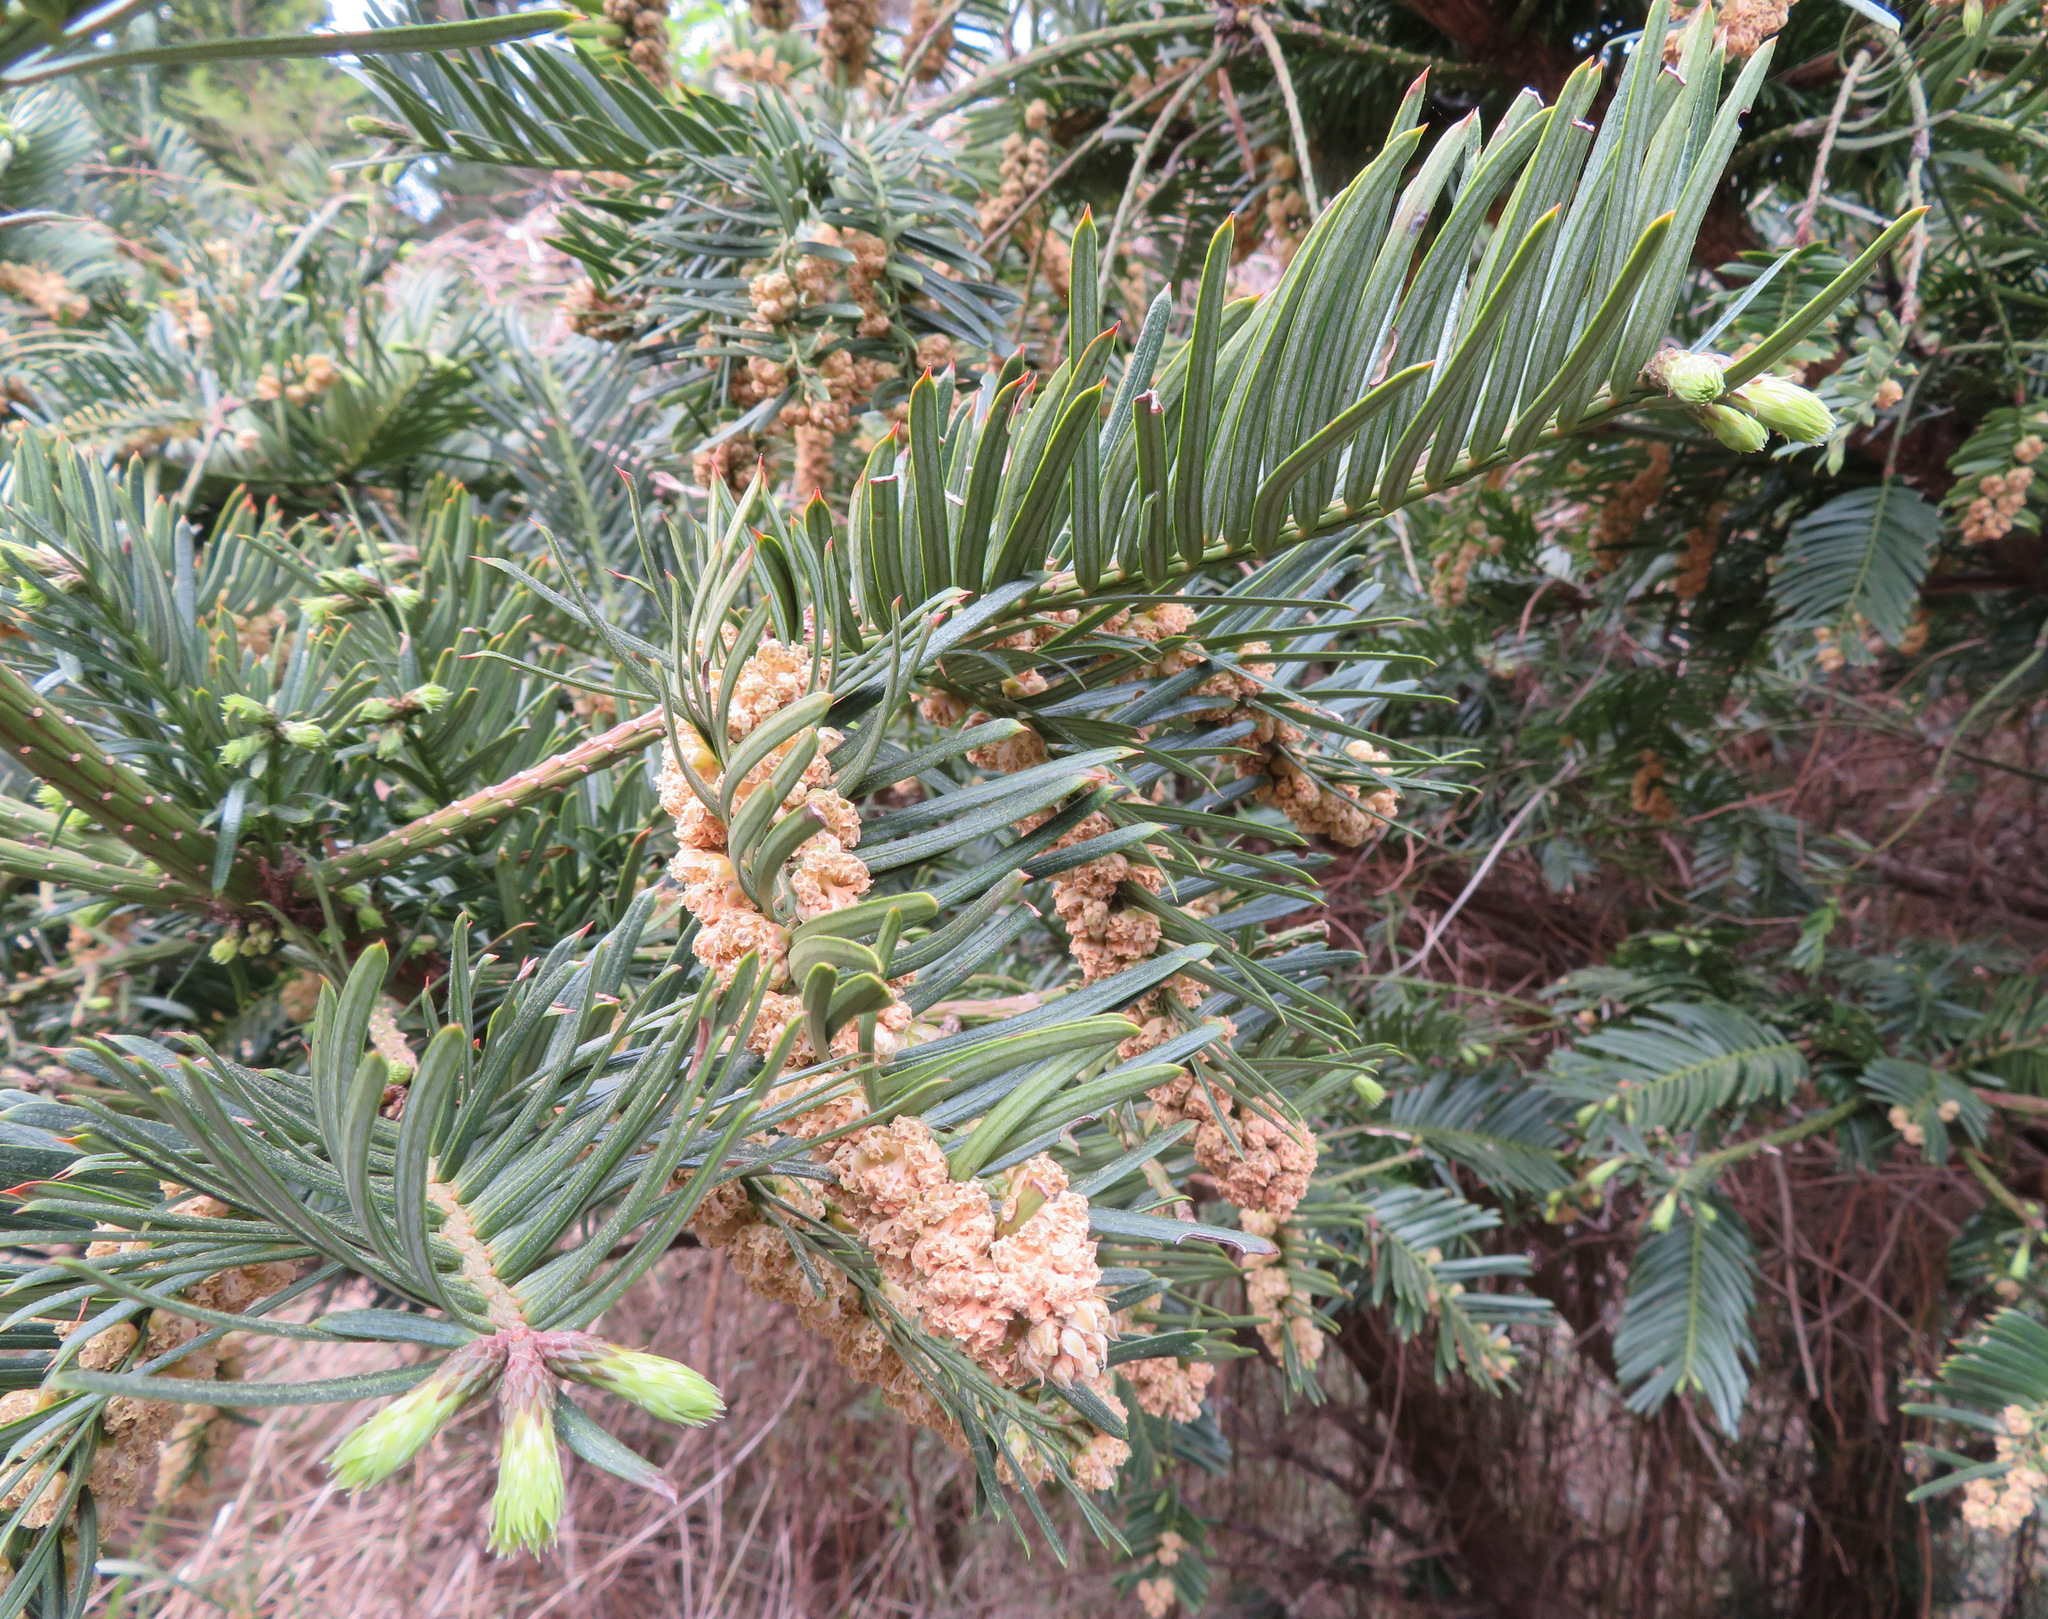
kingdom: Plantae
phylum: Tracheophyta
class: Pinopsida
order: Pinales
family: Cephalotaxaceae
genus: Cephalotaxus
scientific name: Cephalotaxus harringtonia
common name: Japanese plum-yew
